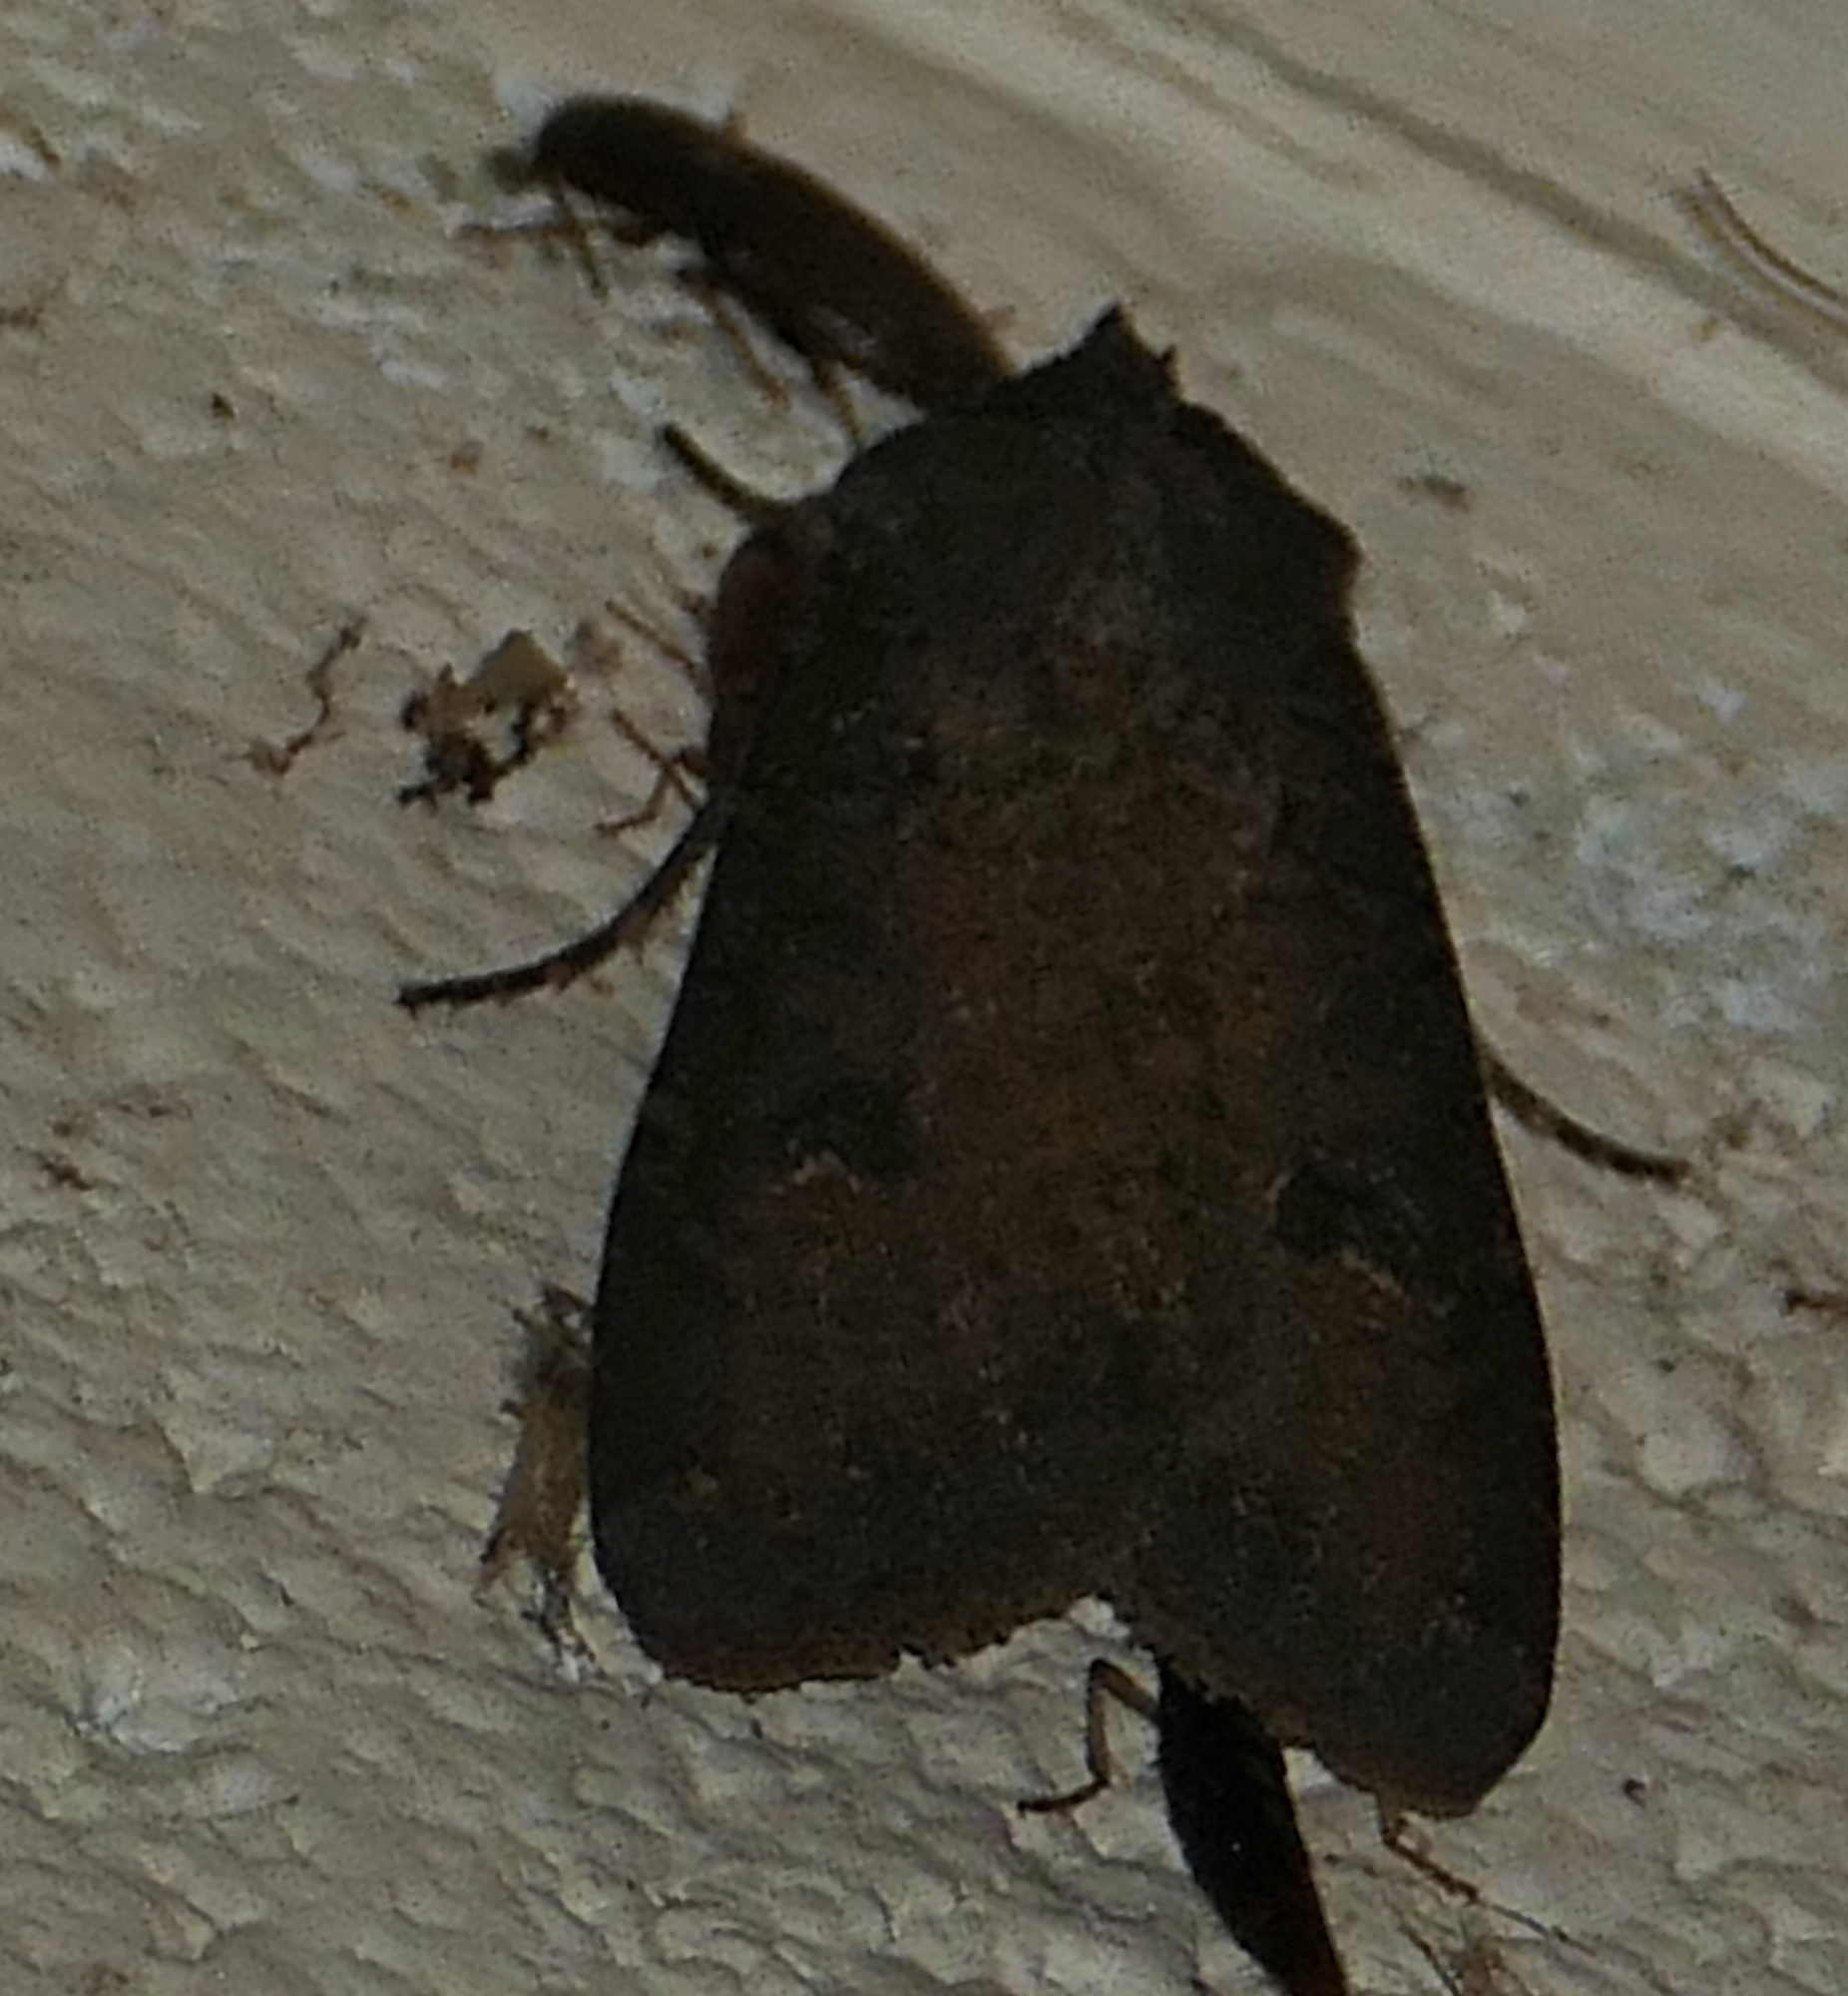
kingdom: Animalia
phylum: Arthropoda
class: Insecta
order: Lepidoptera
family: Noctuidae
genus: Peridroma
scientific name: Peridroma saucia
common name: Pearly underwing
